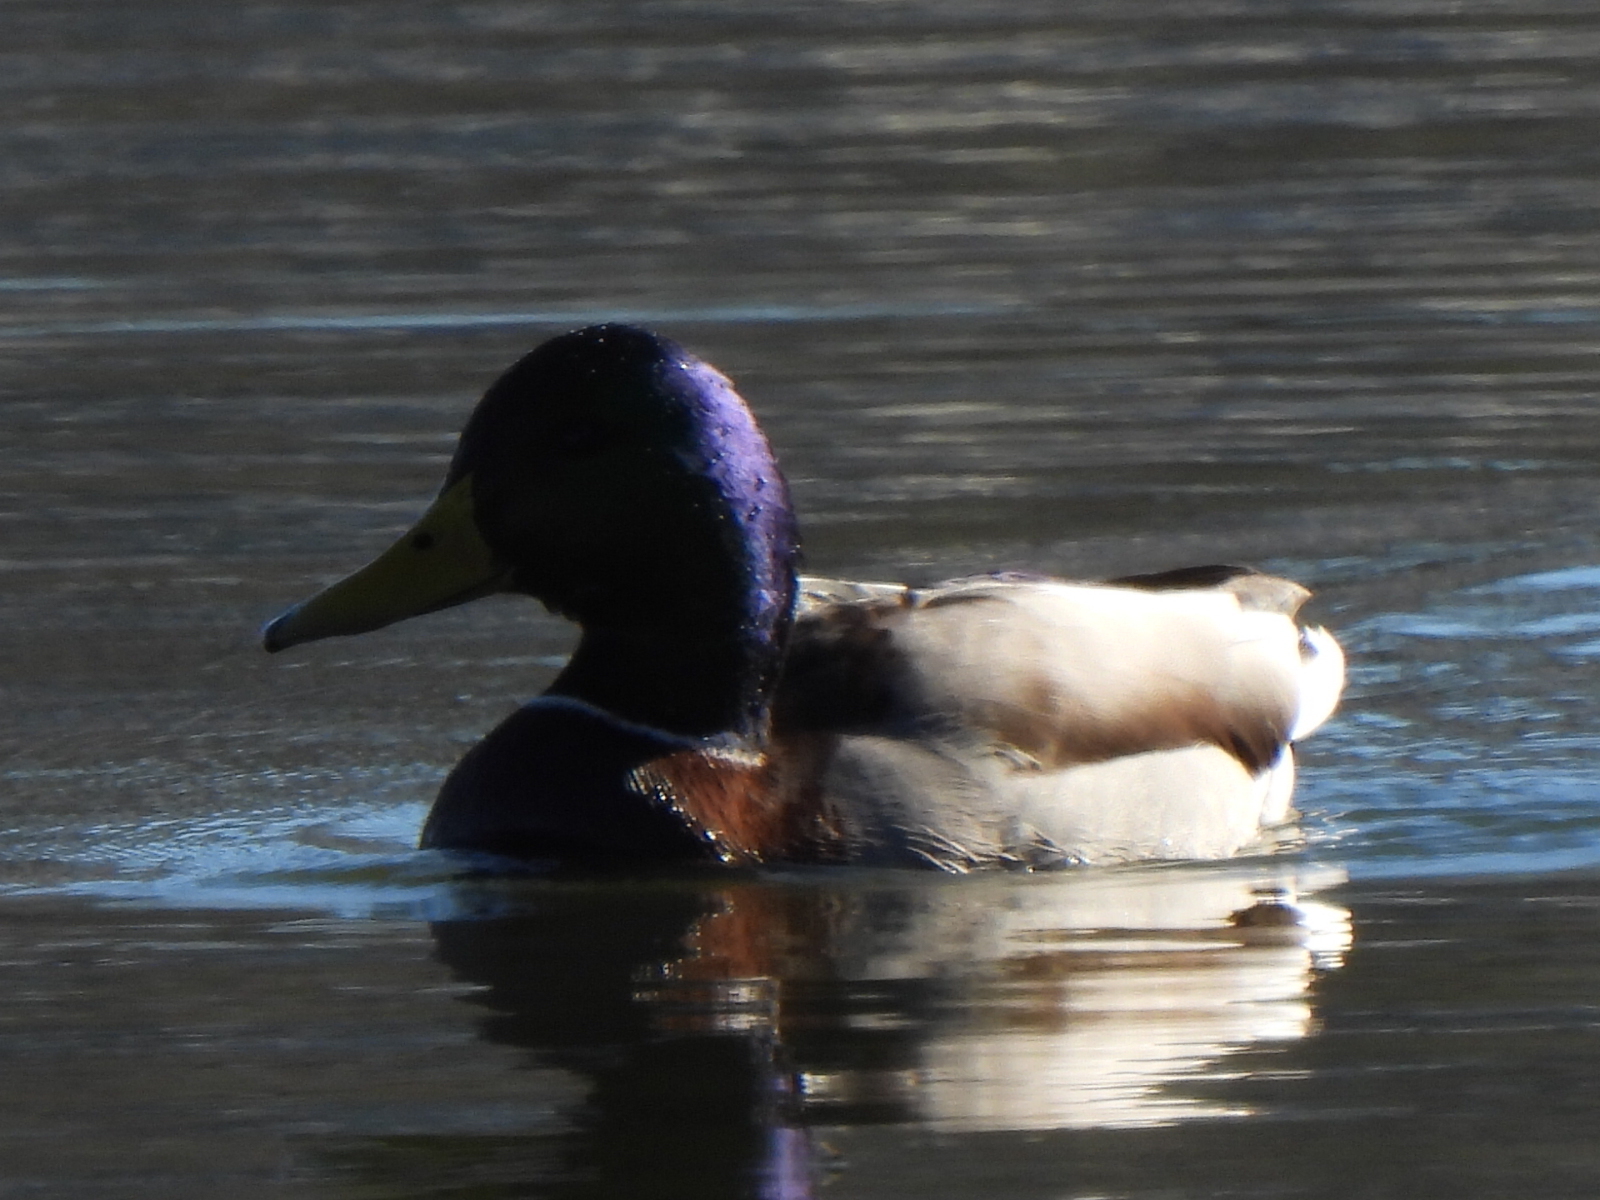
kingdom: Animalia
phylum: Chordata
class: Aves
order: Anseriformes
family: Anatidae
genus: Anas
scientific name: Anas platyrhynchos
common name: Mallard
